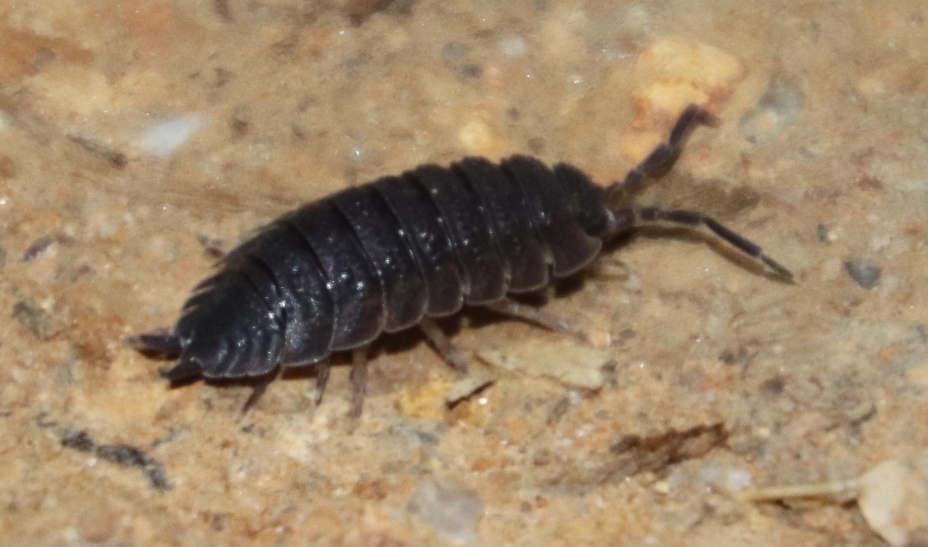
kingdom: Animalia
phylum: Arthropoda
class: Malacostraca
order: Isopoda
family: Porcellionidae
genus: Porcellio
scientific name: Porcellio scaber
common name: Common rough woodlouse
